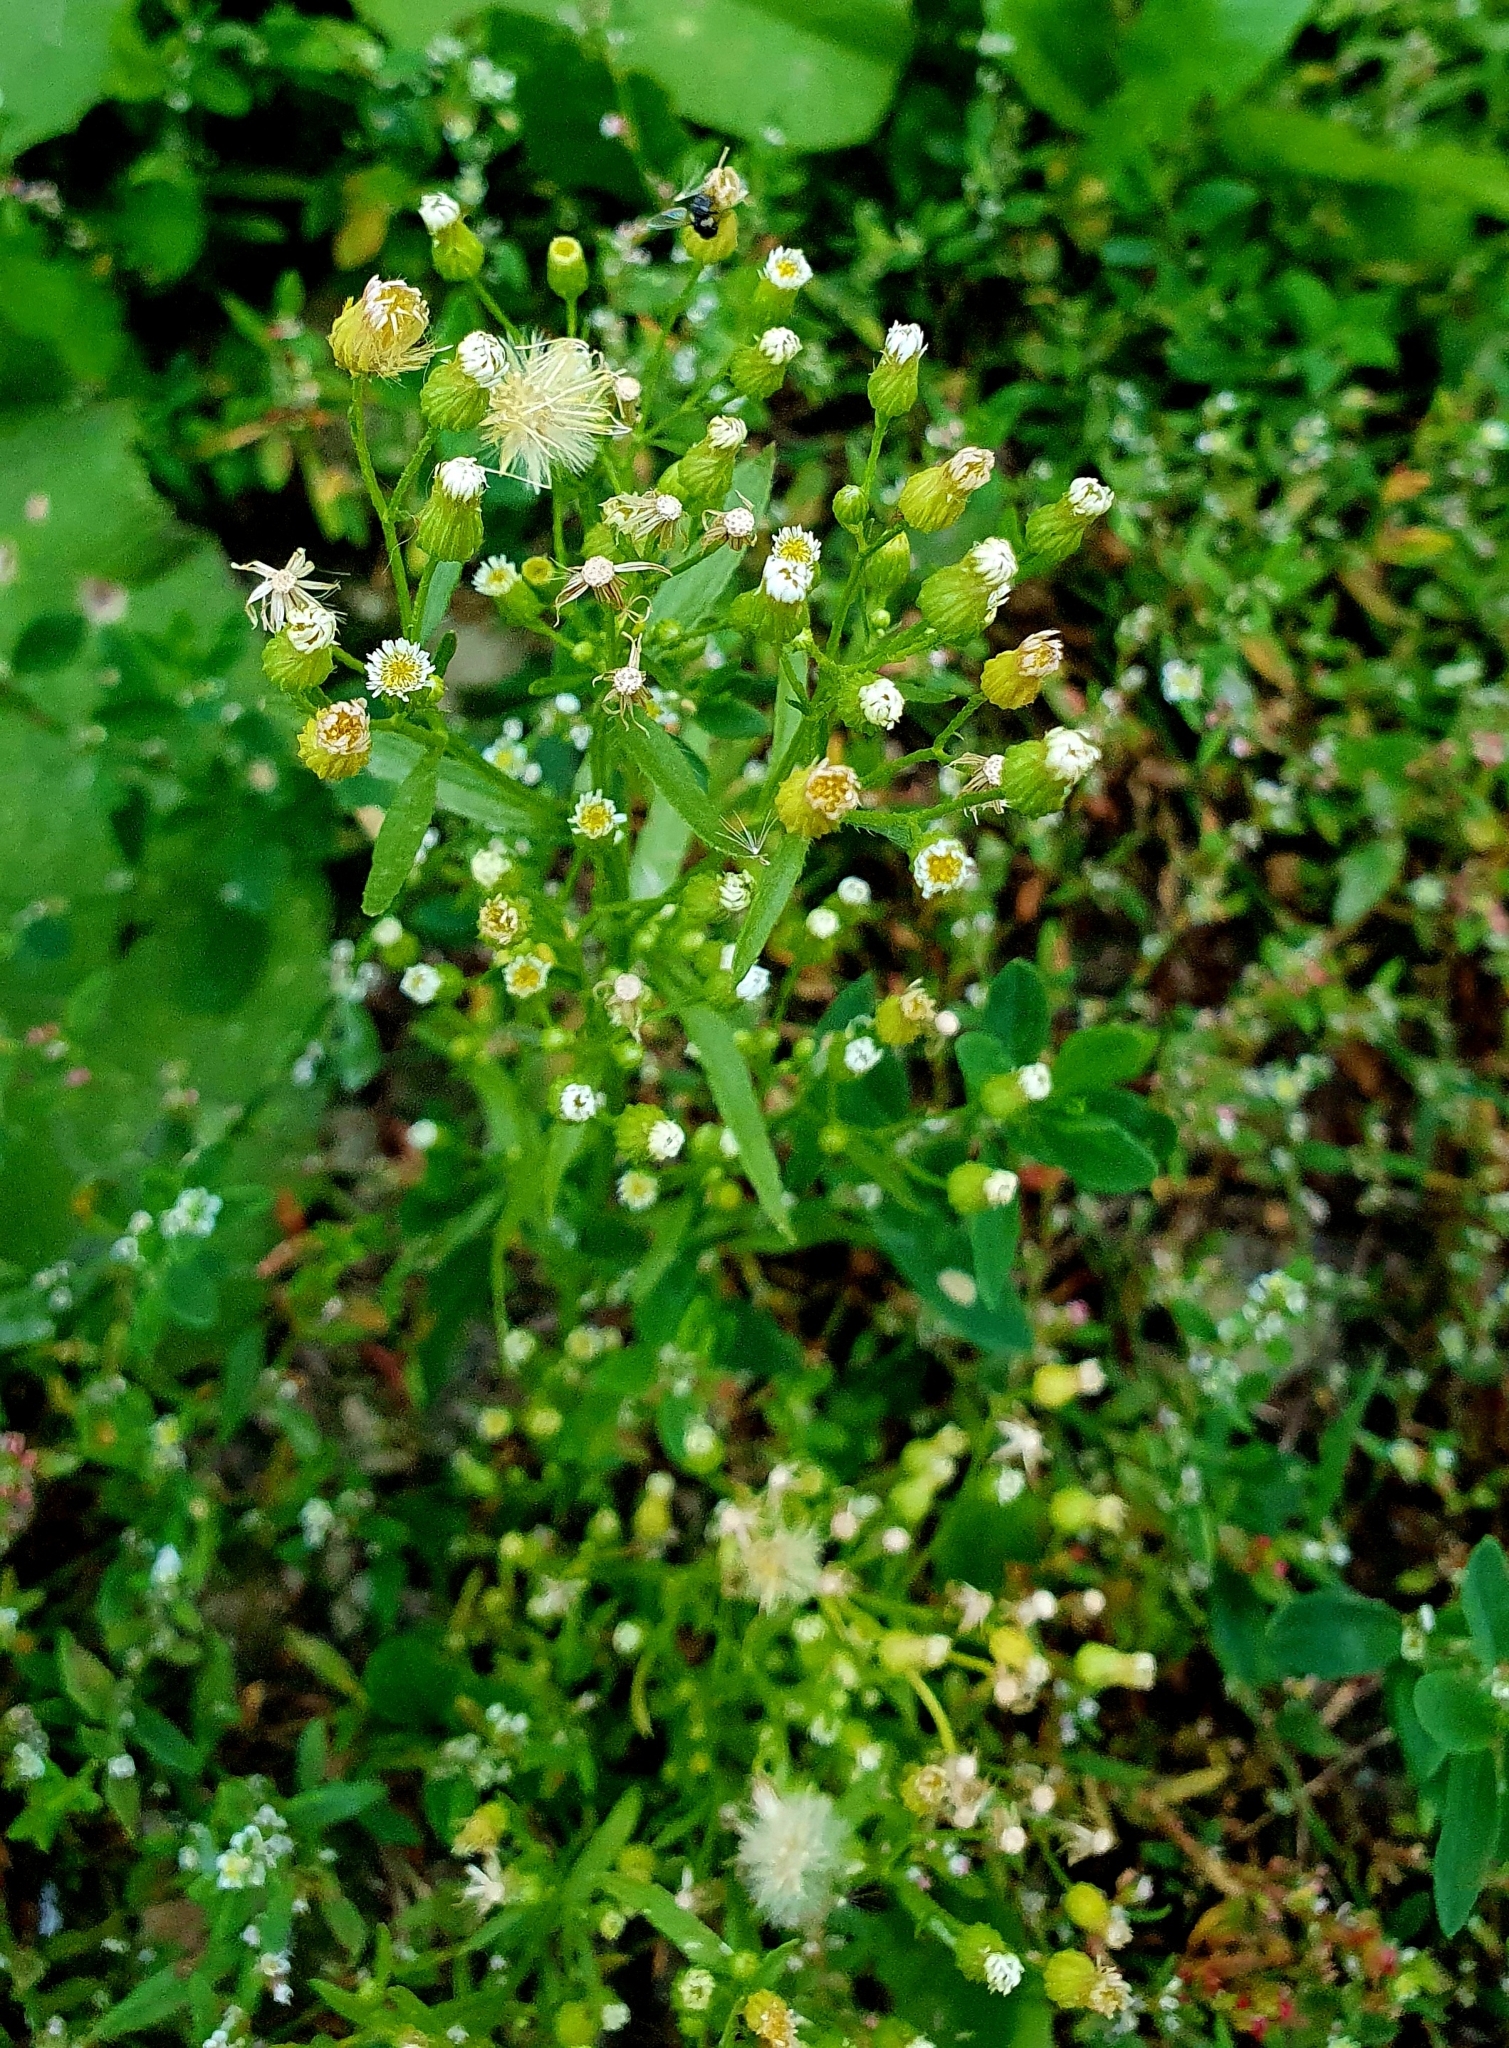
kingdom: Plantae
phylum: Tracheophyta
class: Magnoliopsida
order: Asterales
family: Asteraceae
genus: Erigeron
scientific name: Erigeron canadensis
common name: Canadian fleabane
